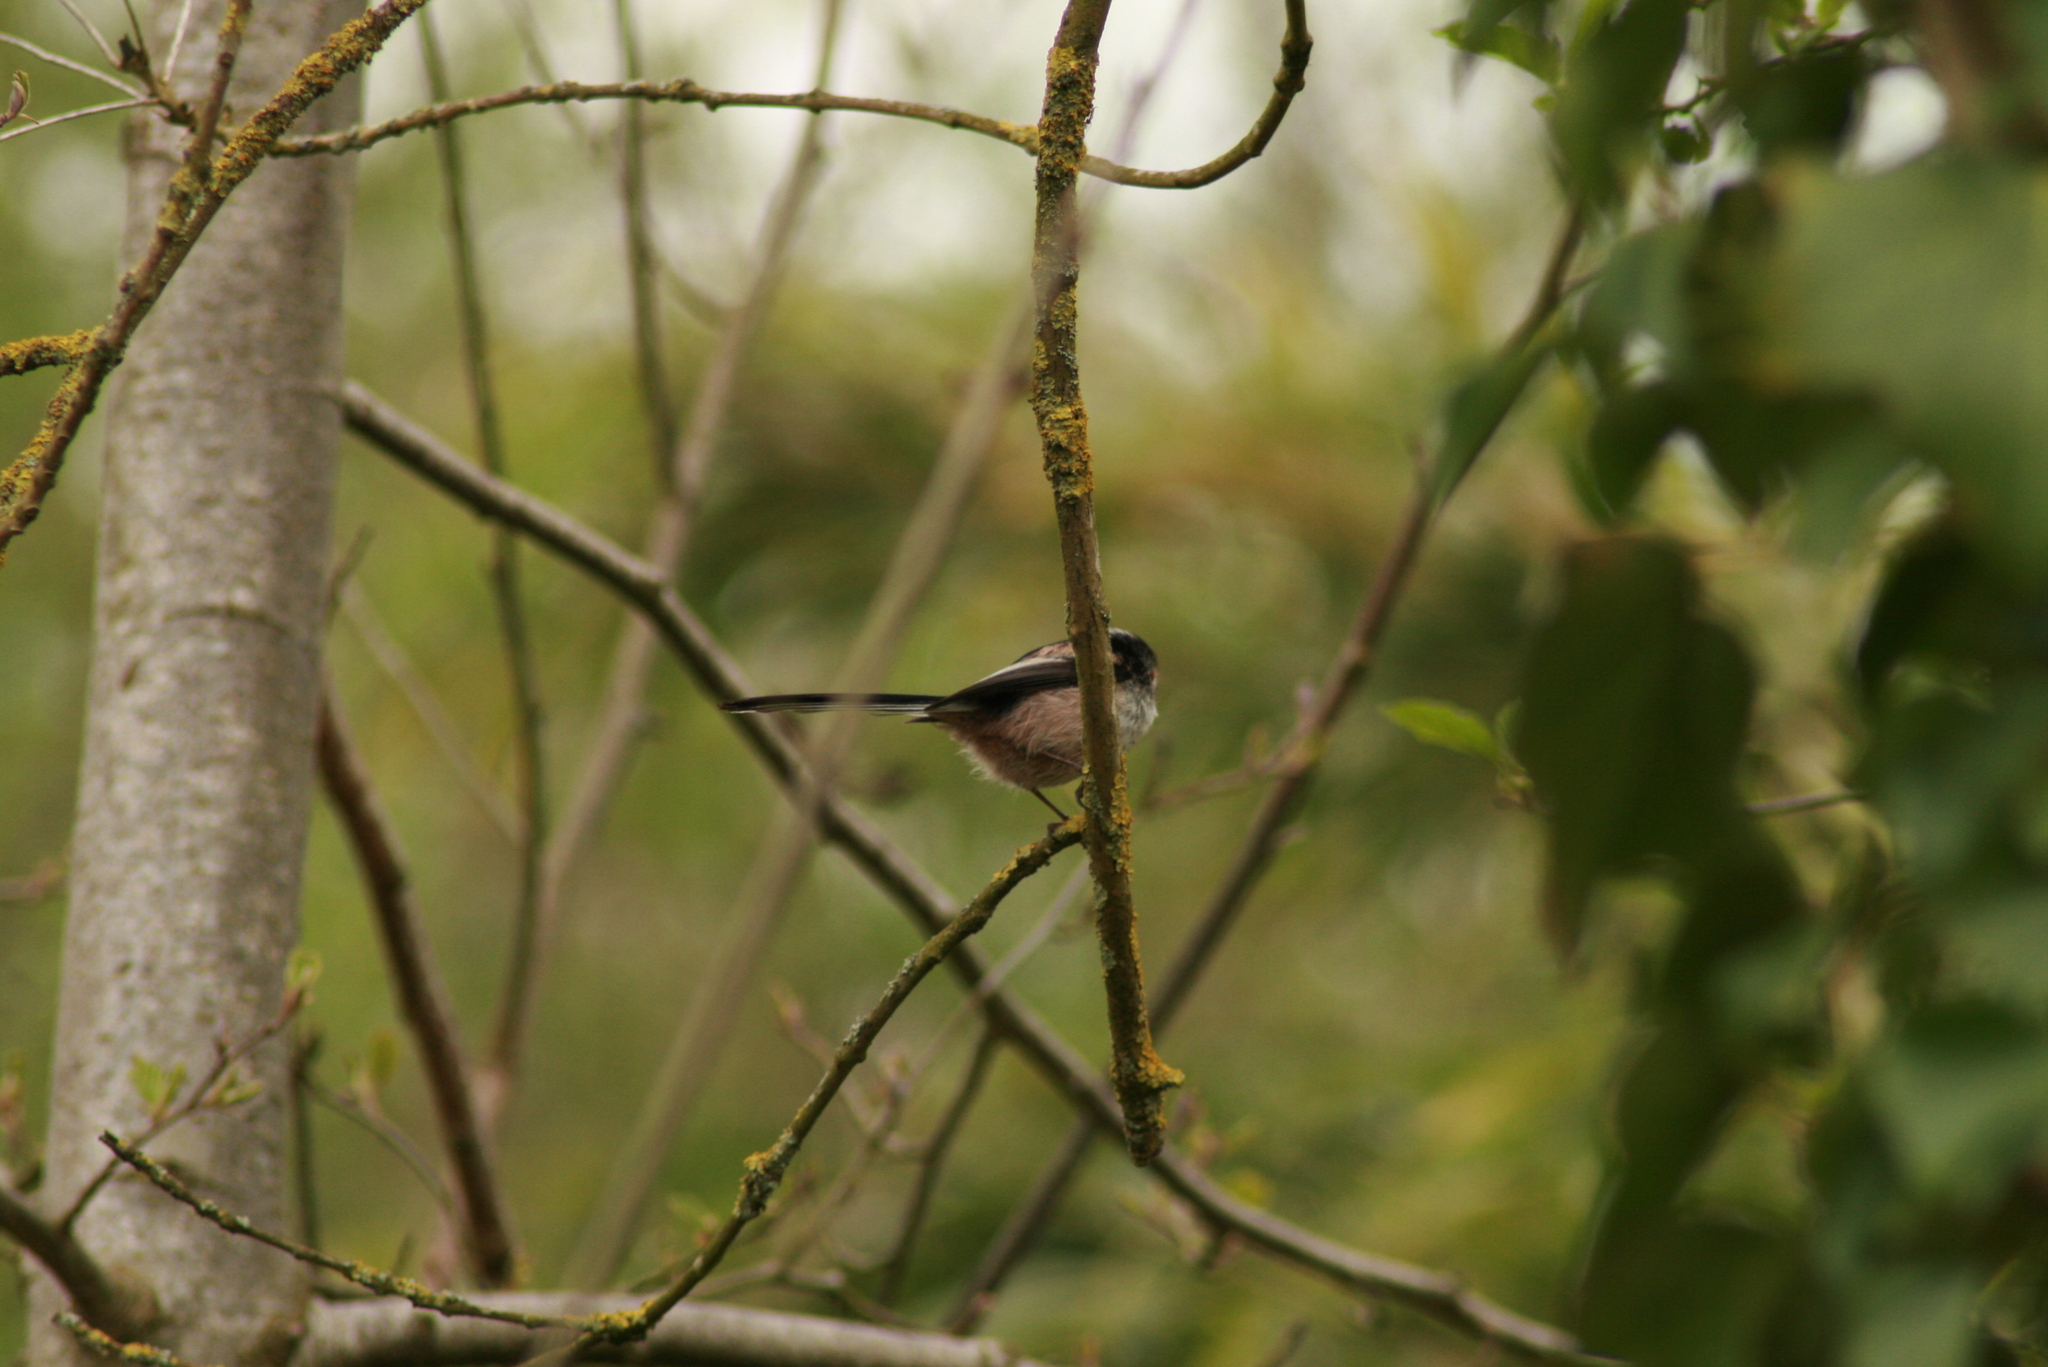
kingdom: Animalia
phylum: Chordata
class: Aves
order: Passeriformes
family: Aegithalidae
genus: Aegithalos
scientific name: Aegithalos caudatus
